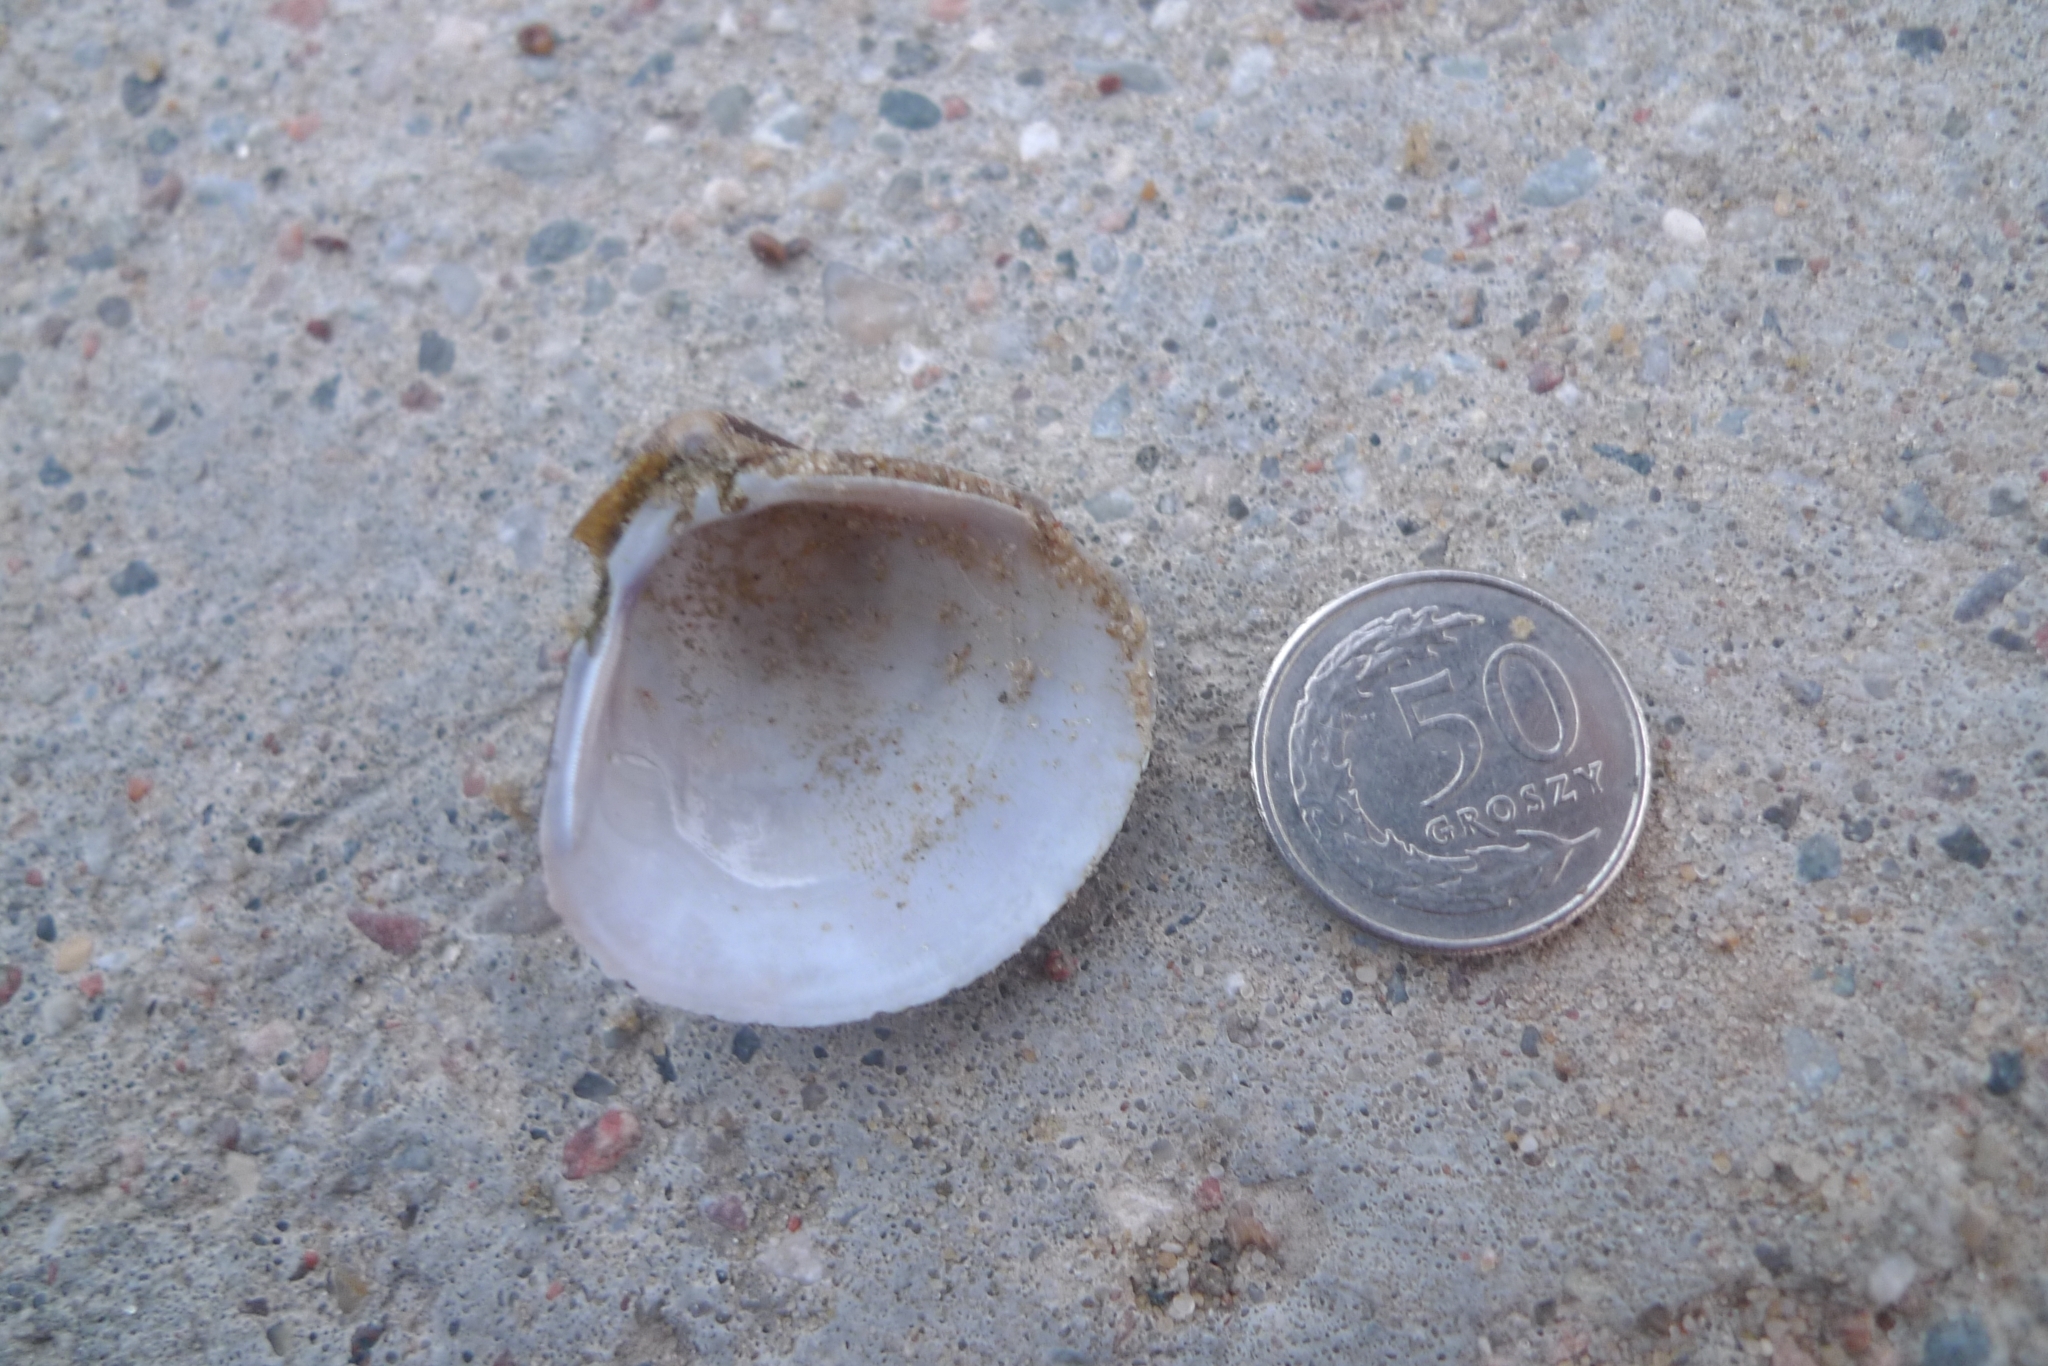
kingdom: Animalia
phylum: Mollusca
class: Bivalvia
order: Venerida
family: Cyrenidae
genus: Corbicula
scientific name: Corbicula fluminea
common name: Asian clam
